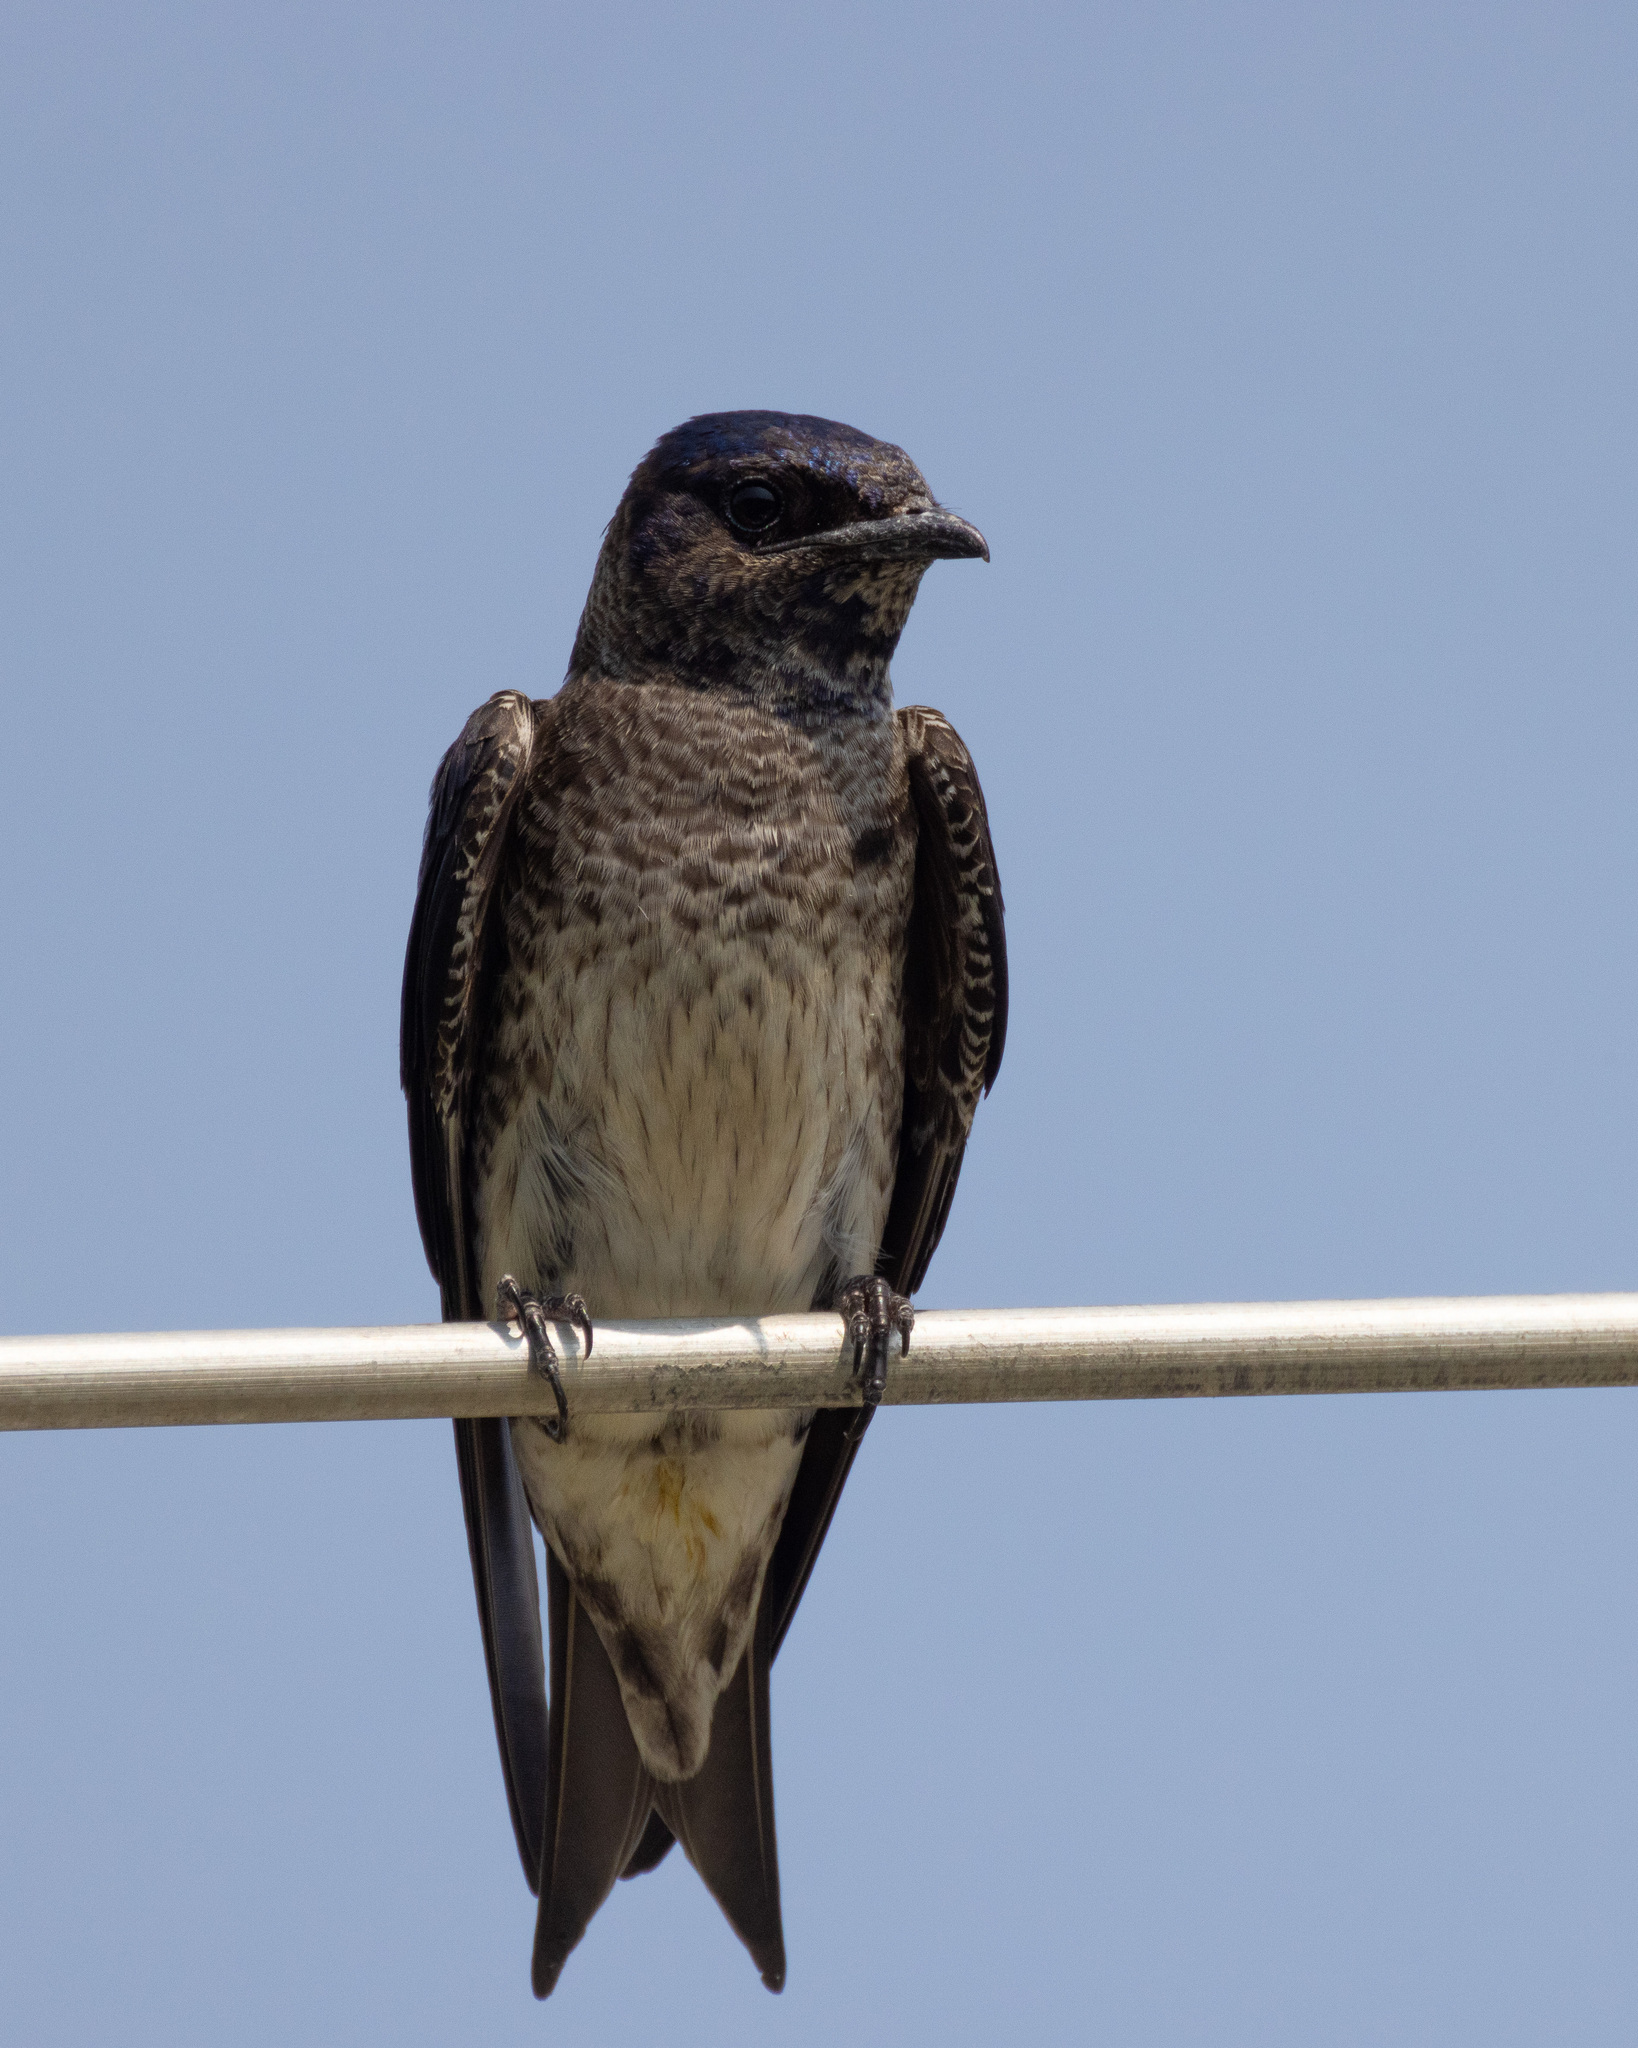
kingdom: Animalia
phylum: Chordata
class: Aves
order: Passeriformes
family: Hirundinidae
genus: Progne
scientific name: Progne subis
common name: Purple martin
